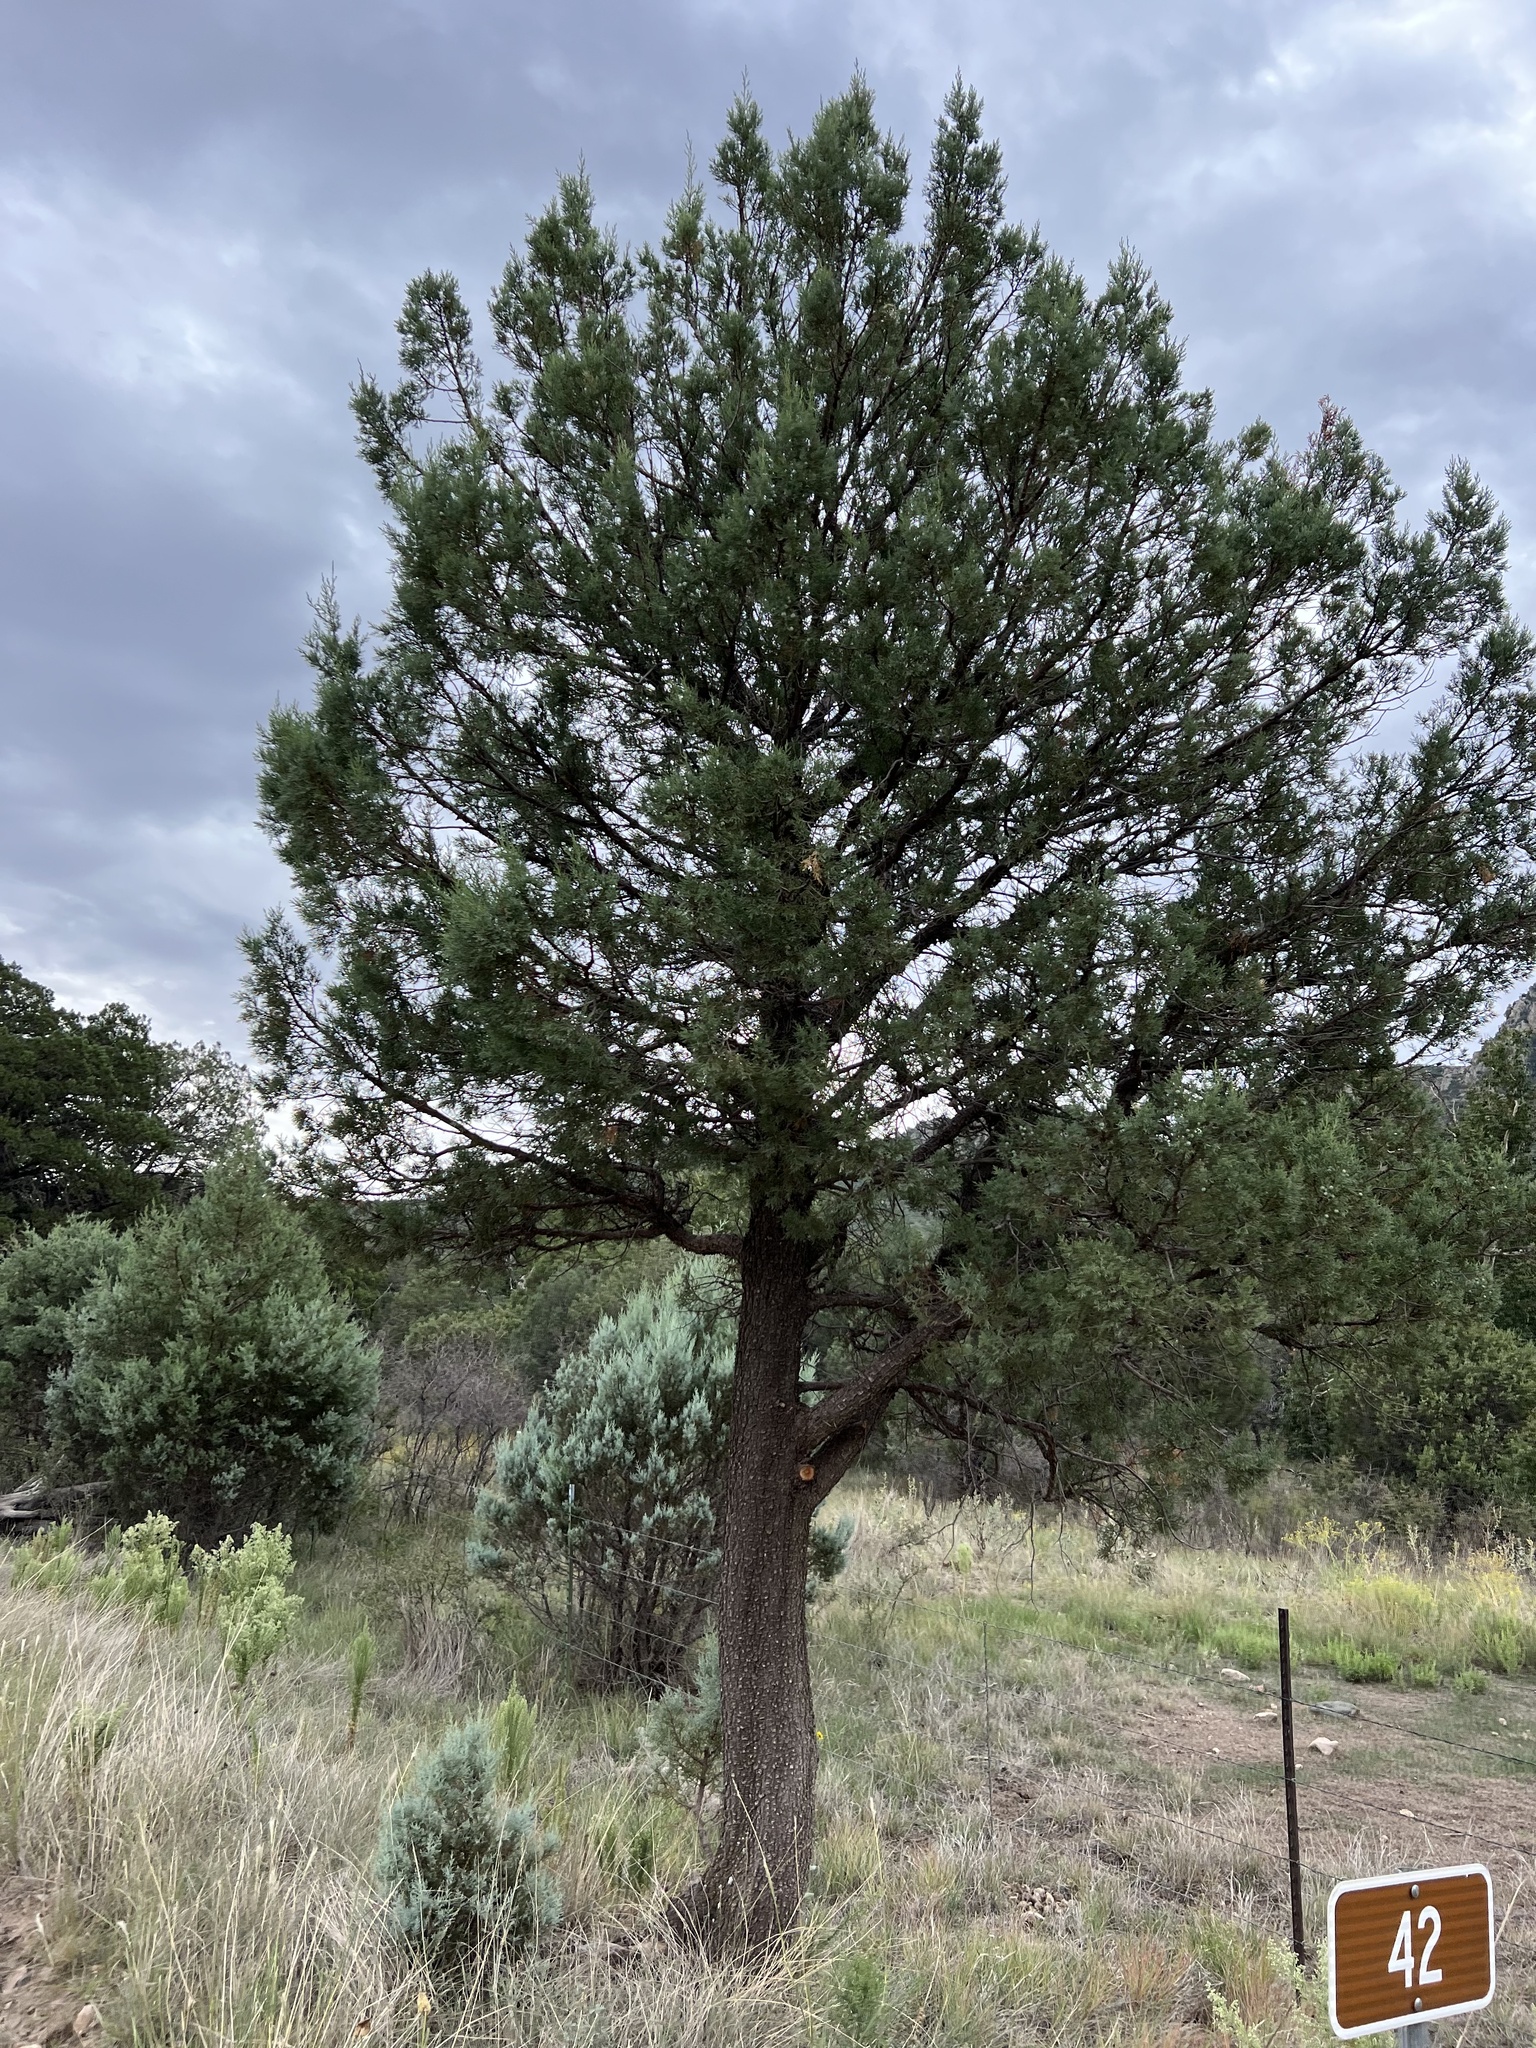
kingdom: Plantae
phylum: Tracheophyta
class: Pinopsida
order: Pinales
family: Cupressaceae
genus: Juniperus
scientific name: Juniperus deppeana
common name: Alligator juniper
